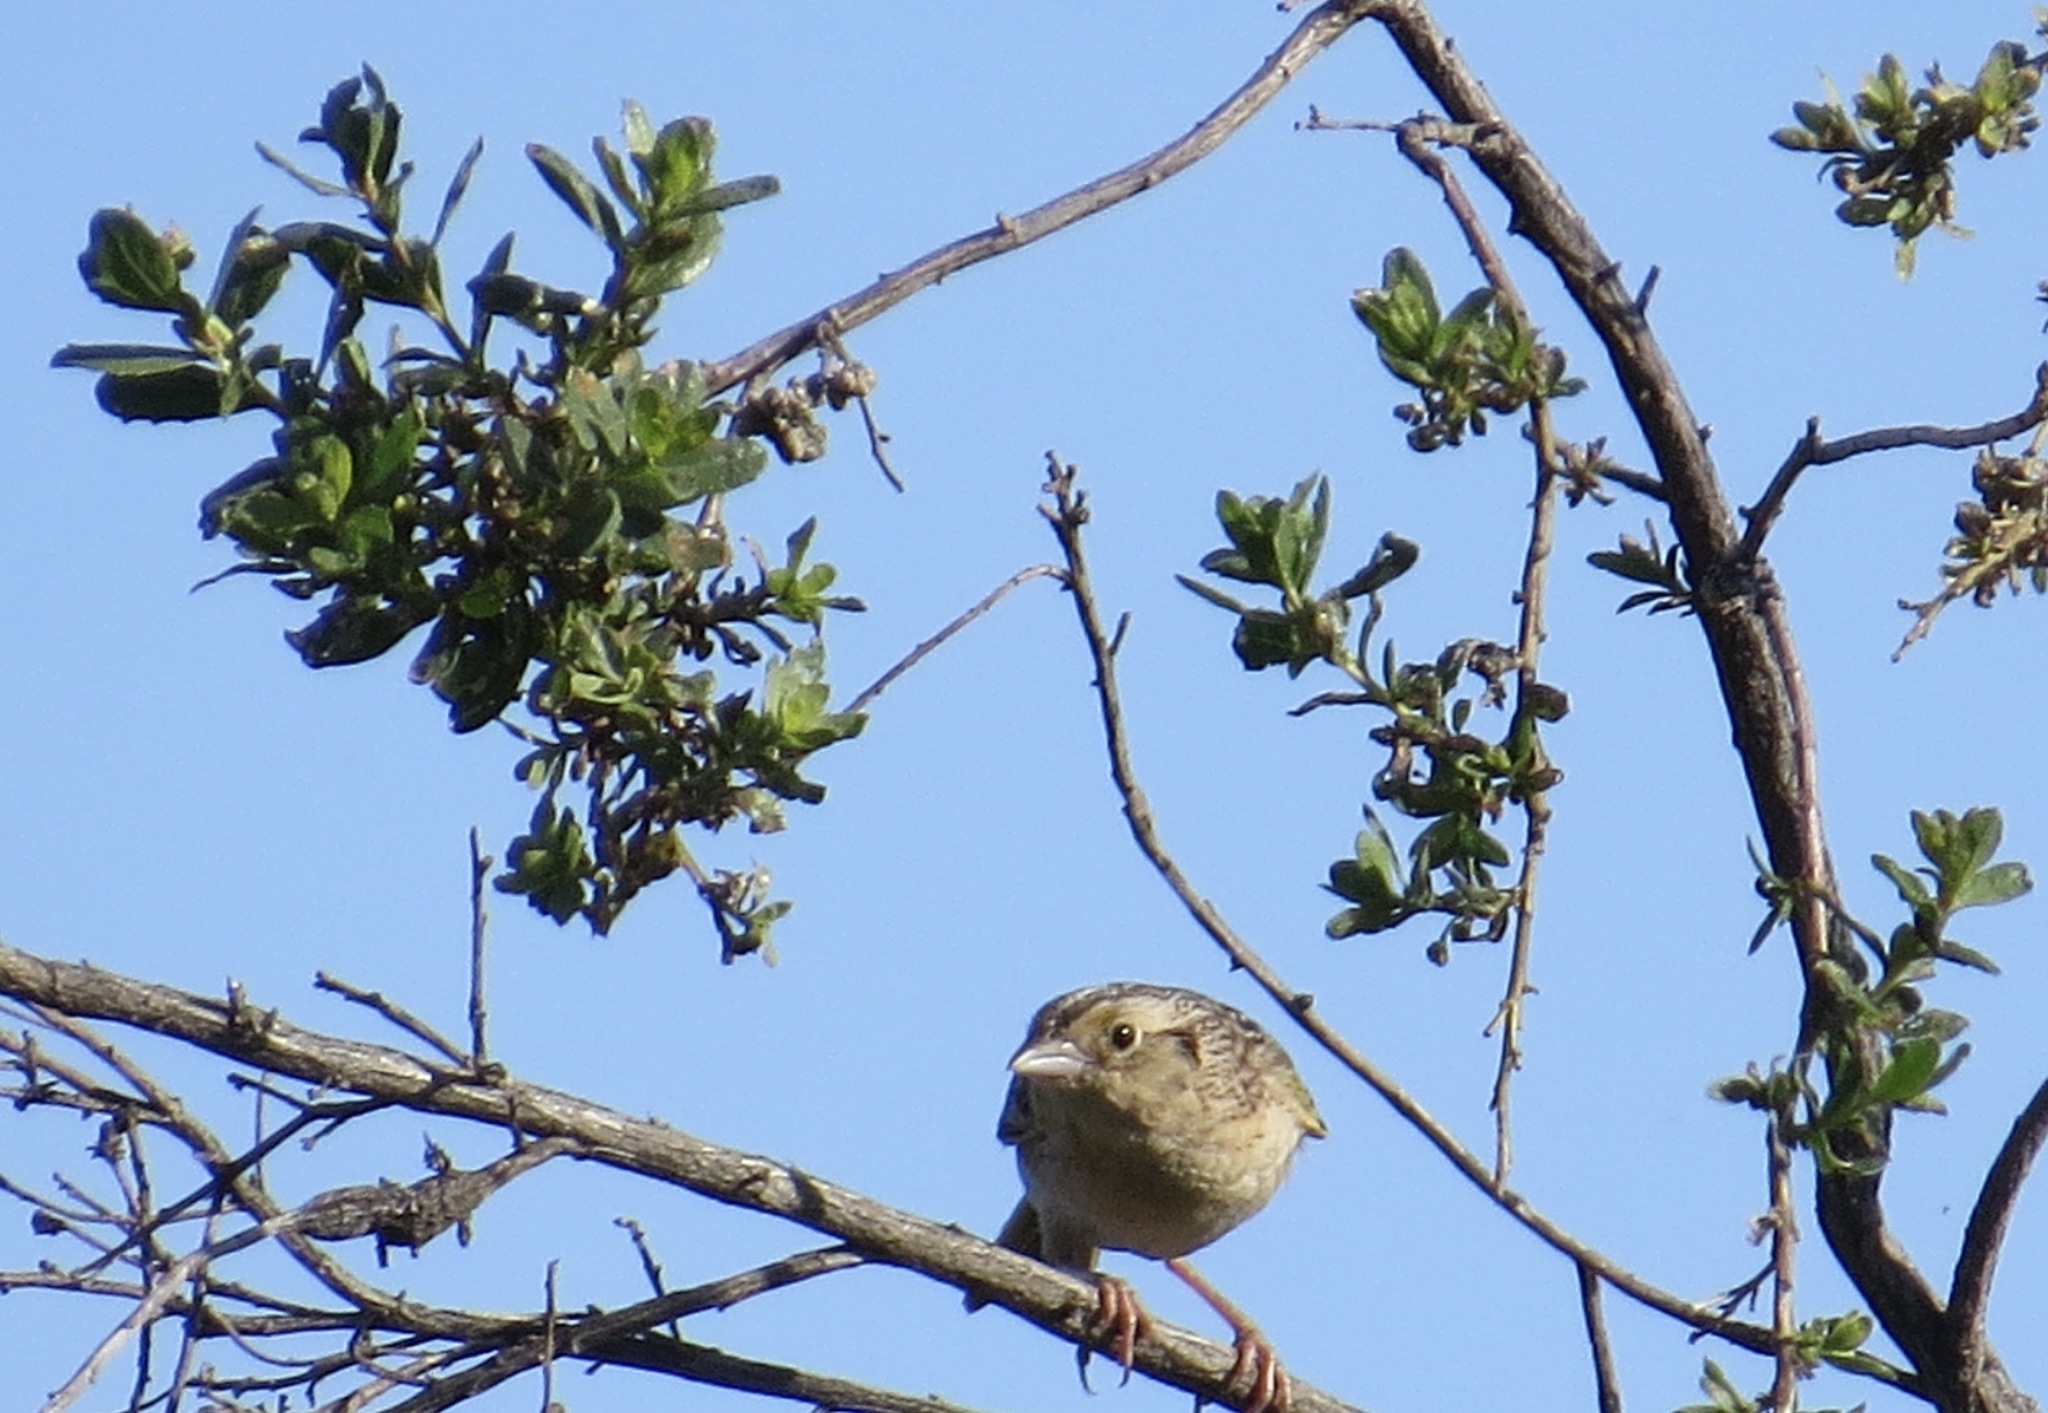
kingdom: Animalia
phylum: Chordata
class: Aves
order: Passeriformes
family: Passerellidae
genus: Ammodramus
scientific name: Ammodramus savannarum
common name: Grasshopper sparrow
